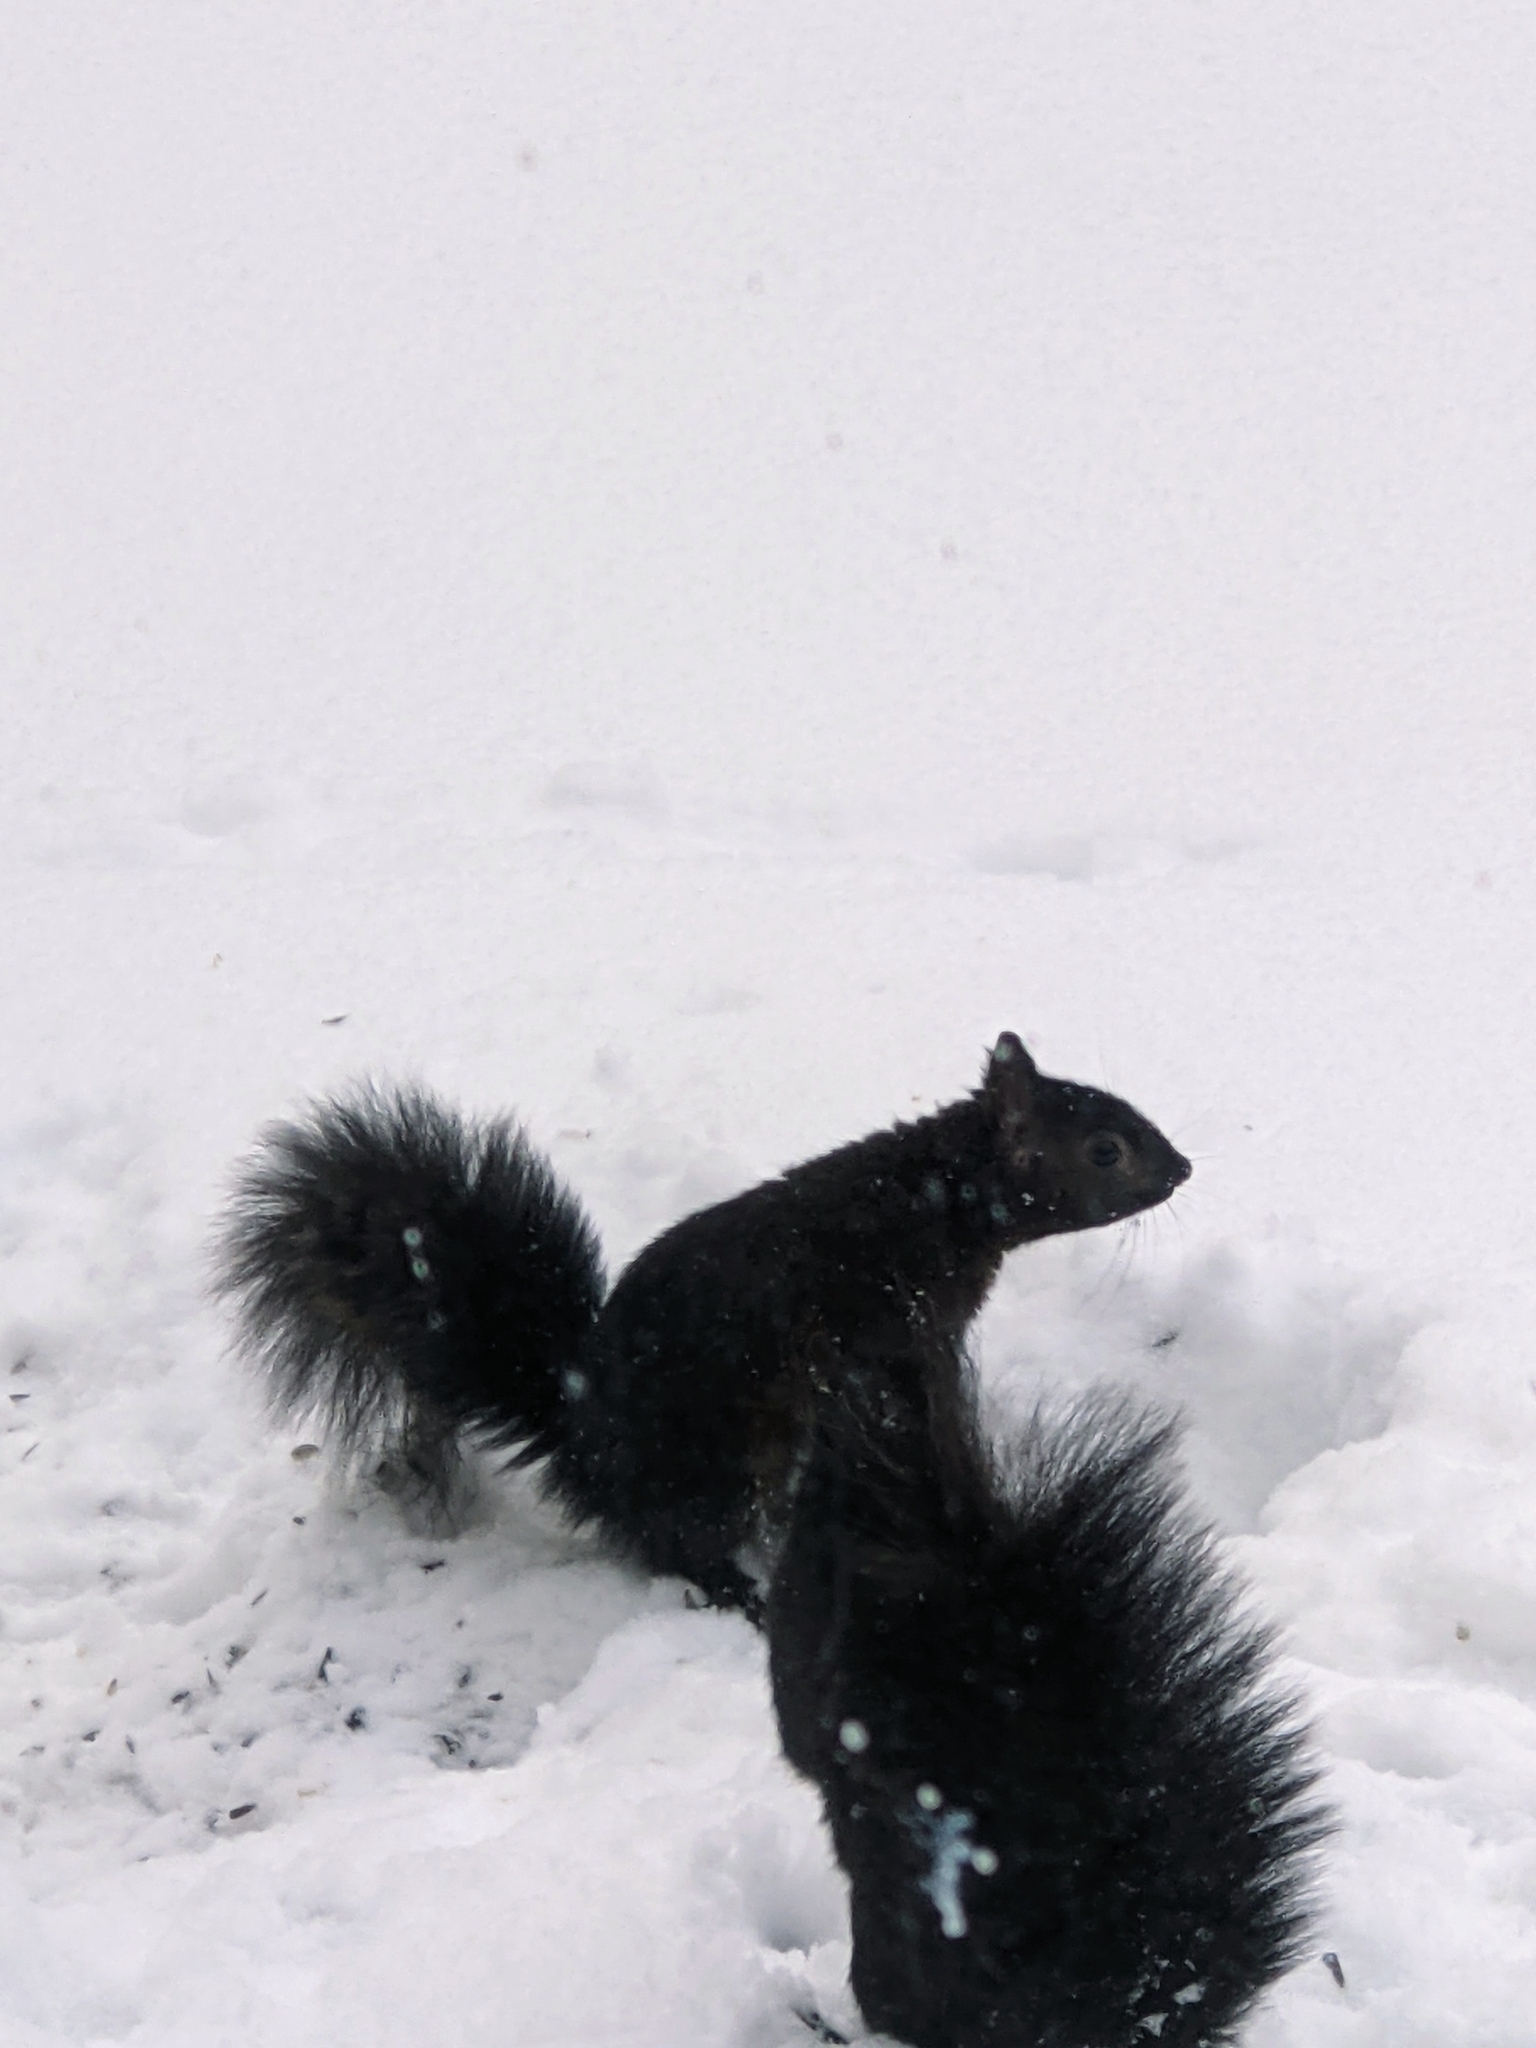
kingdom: Animalia
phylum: Chordata
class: Mammalia
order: Rodentia
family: Sciuridae
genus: Sciurus
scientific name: Sciurus carolinensis
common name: Eastern gray squirrel
